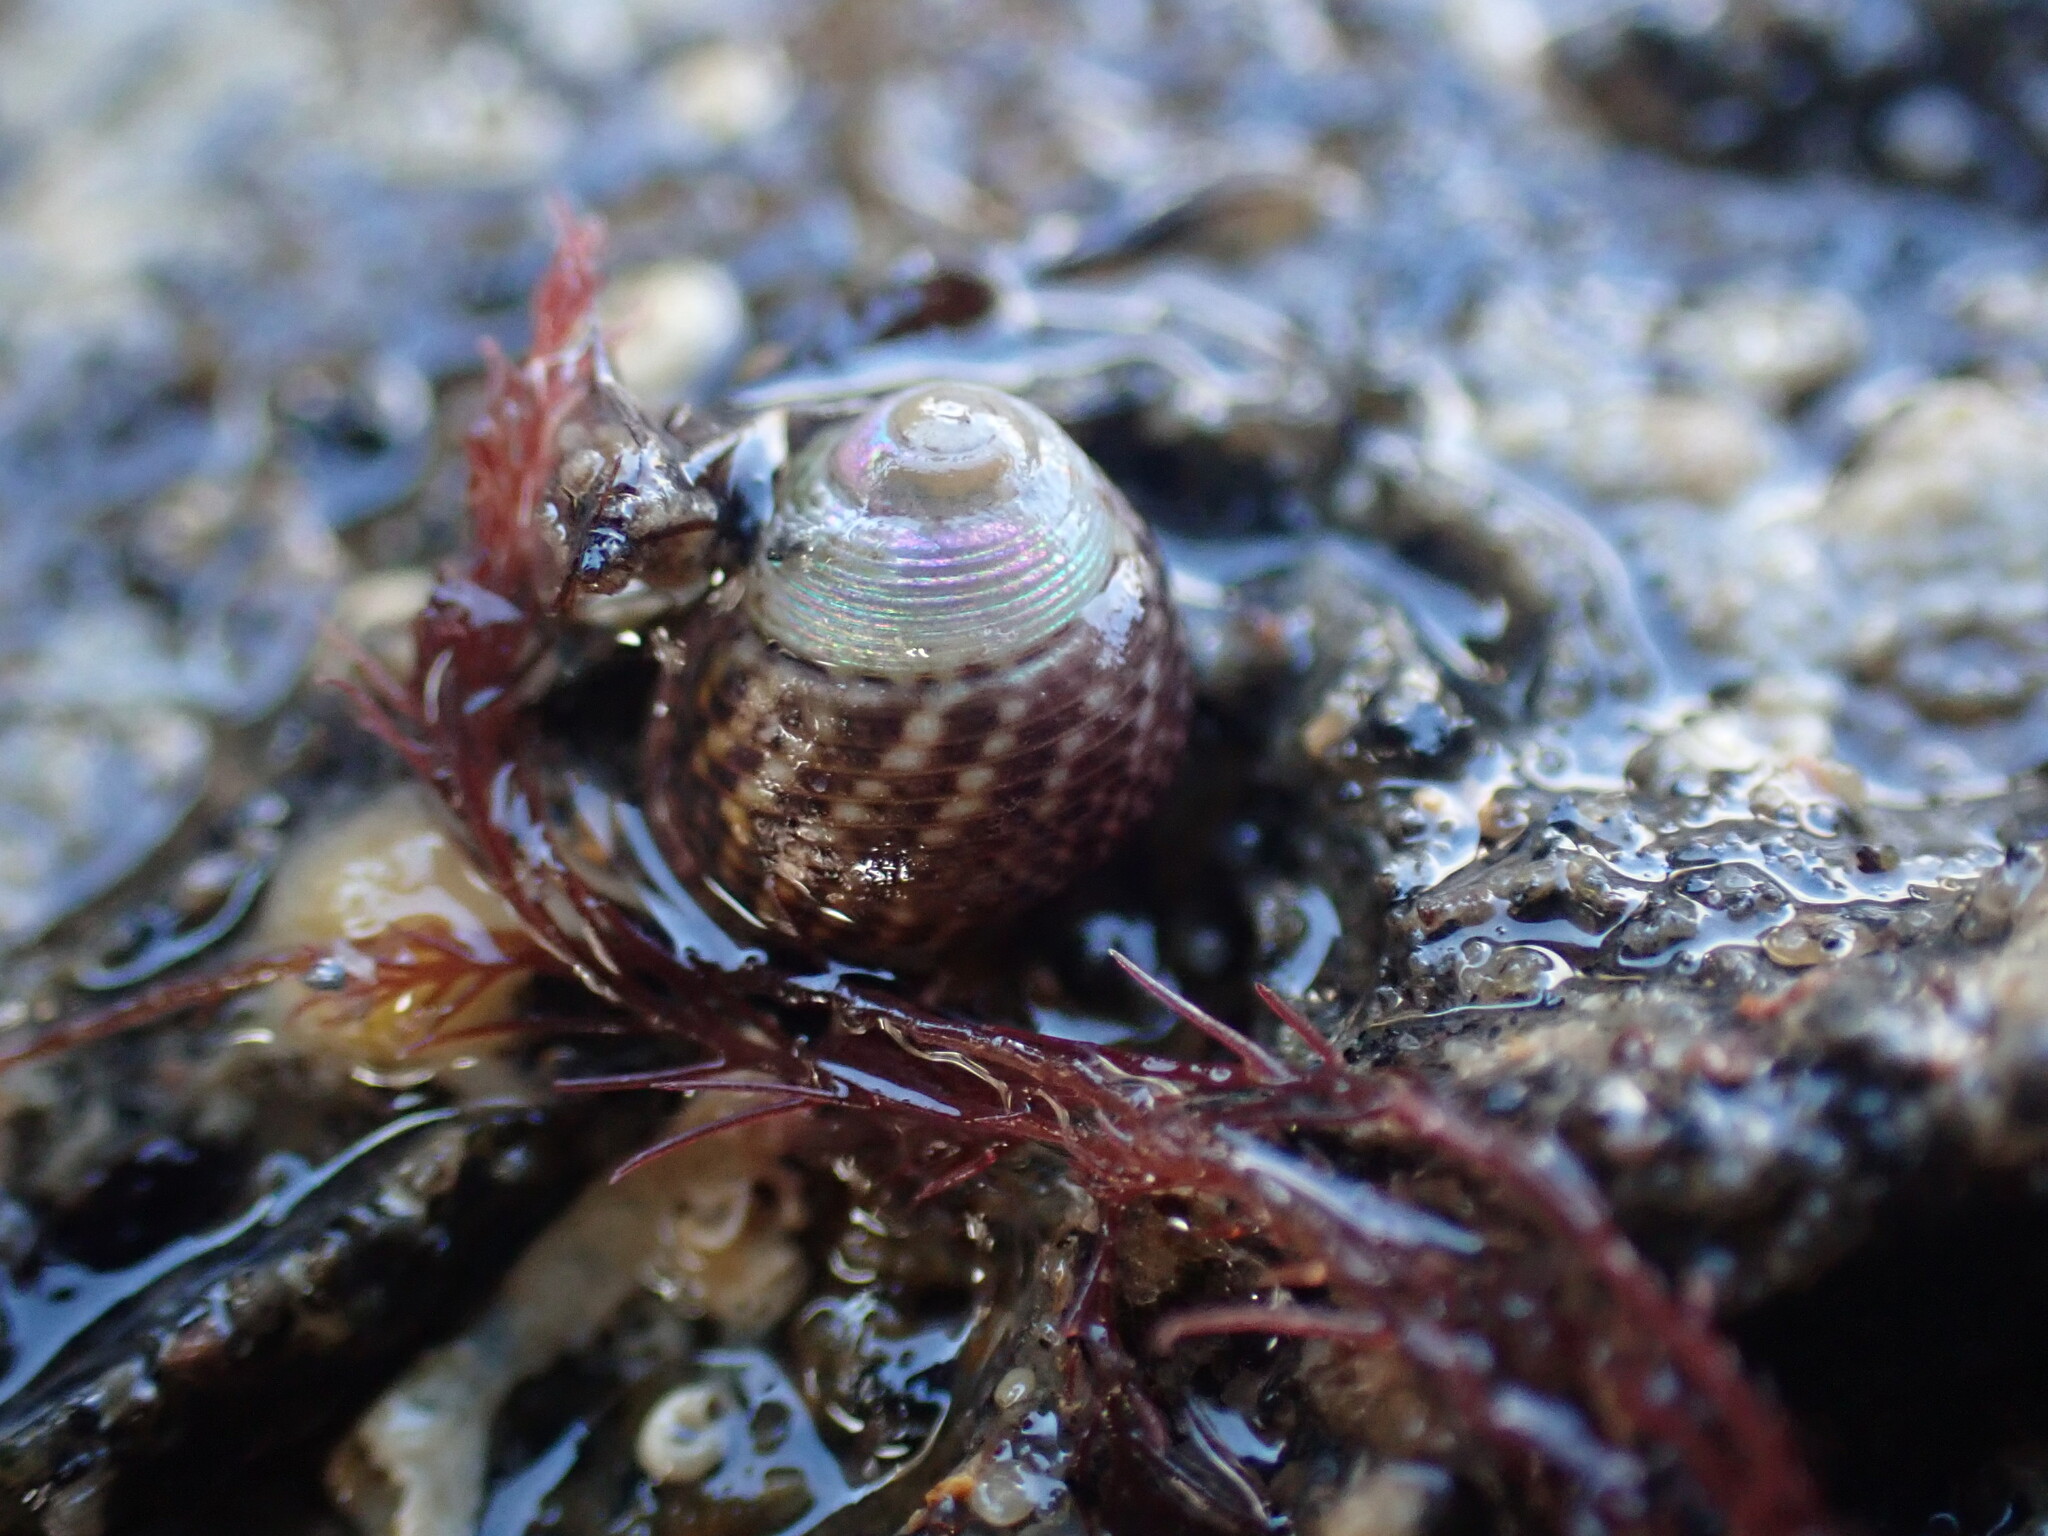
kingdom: Animalia
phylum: Mollusca
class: Gastropoda
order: Trochida
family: Trochidae
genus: Micrelenchus
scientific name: Micrelenchus tessellatus
